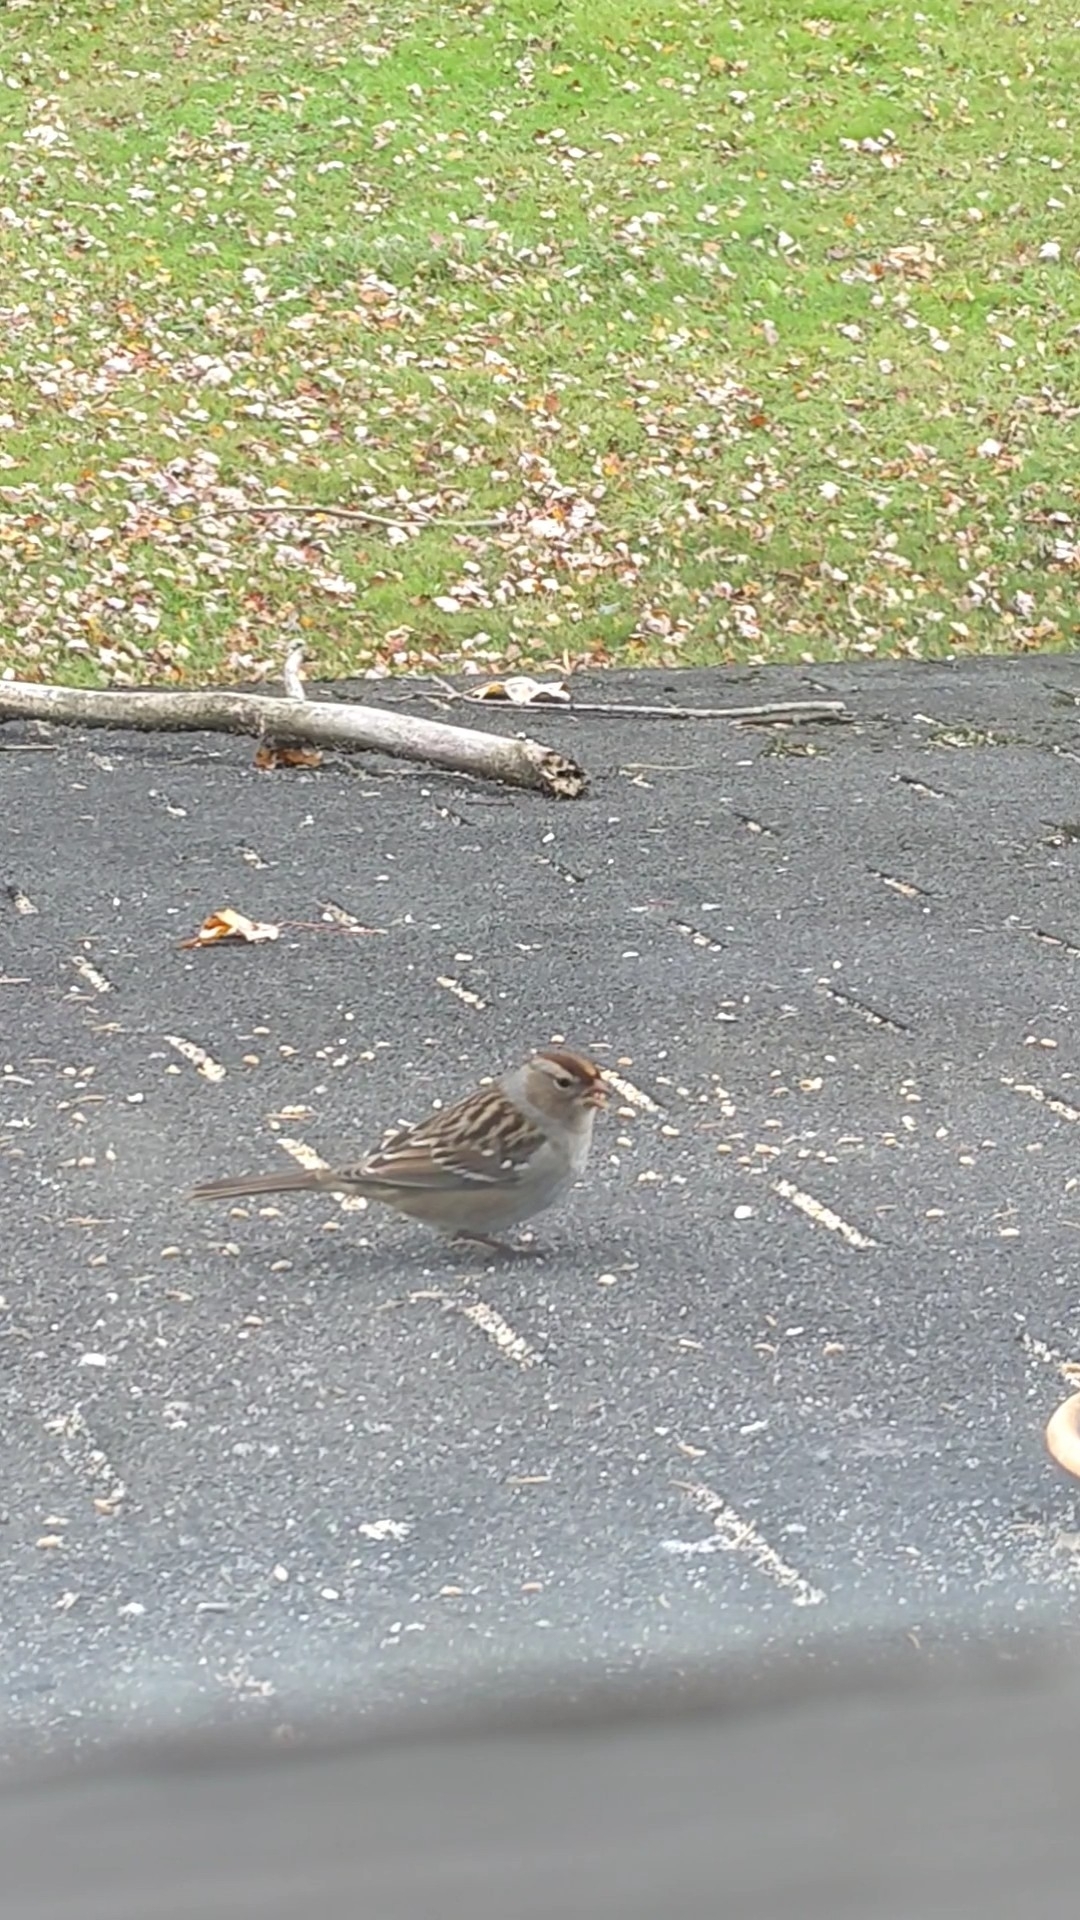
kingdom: Animalia
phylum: Chordata
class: Aves
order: Passeriformes
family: Passerellidae
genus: Zonotrichia
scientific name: Zonotrichia leucophrys
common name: White-crowned sparrow
